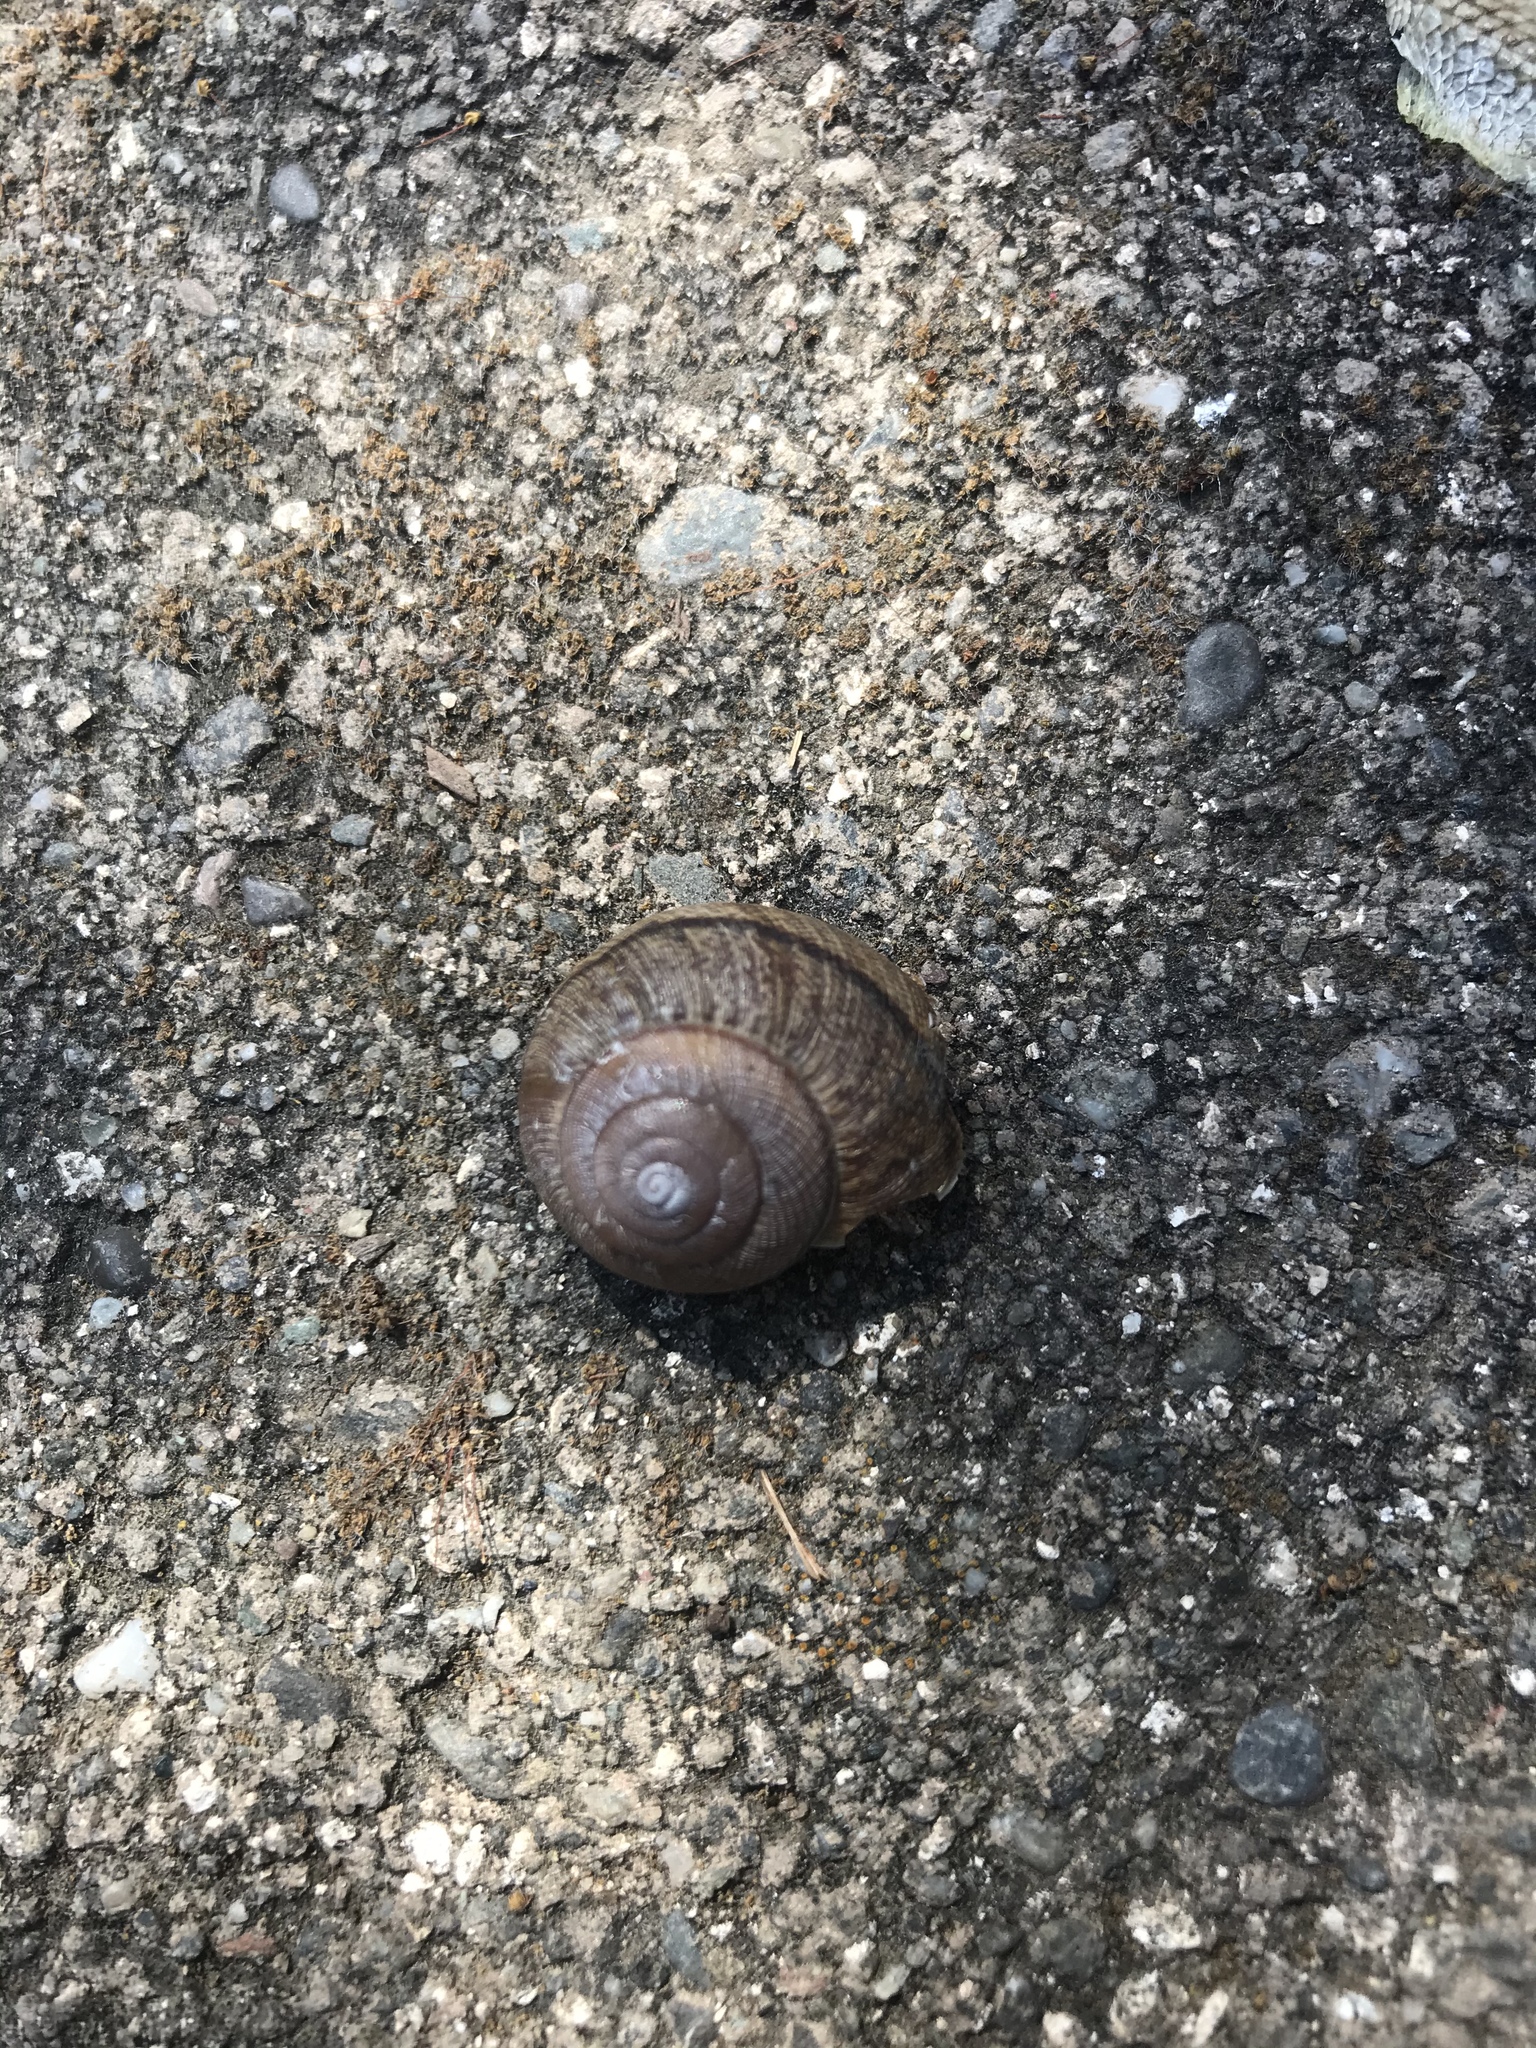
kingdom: Animalia
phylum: Mollusca
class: Gastropoda
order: Stylommatophora
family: Xanthonychidae
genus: Helminthoglypta
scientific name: Helminthoglypta nickliniana
